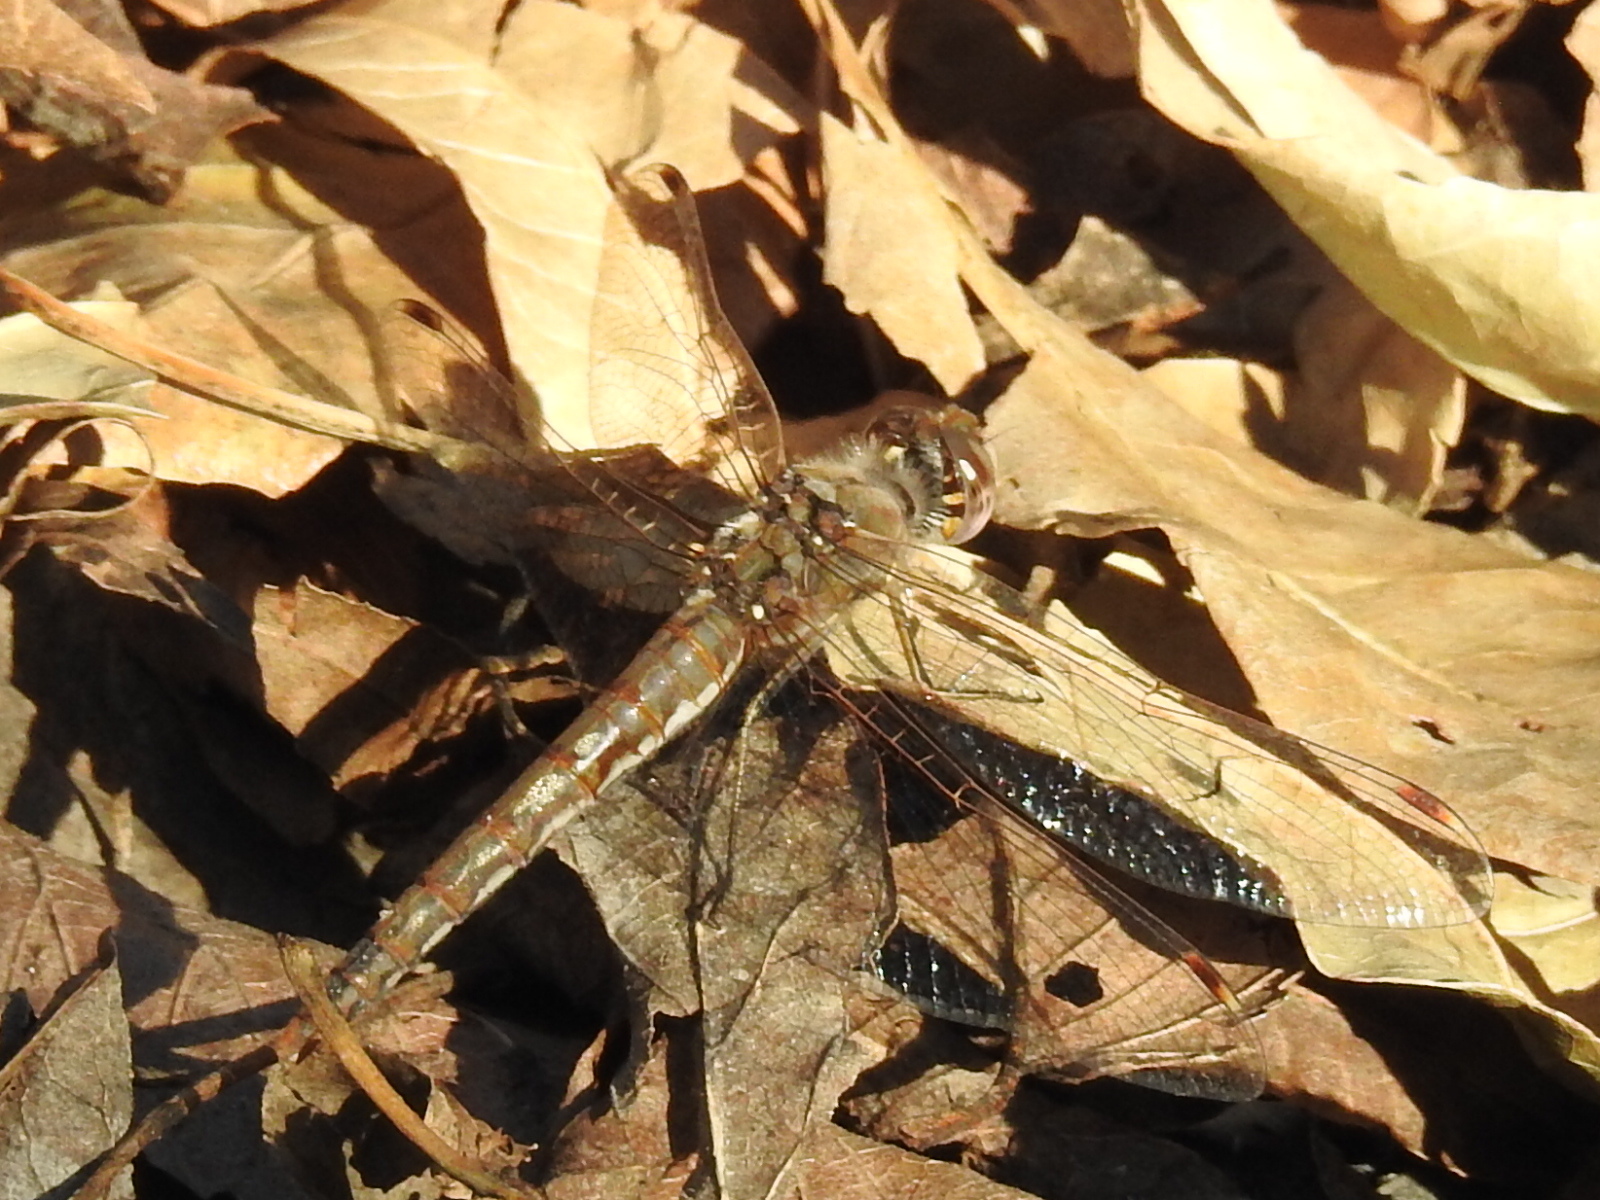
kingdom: Animalia
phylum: Arthropoda
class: Insecta
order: Odonata
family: Libellulidae
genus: Sympetrum
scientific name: Sympetrum corruptum
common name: Variegated meadowhawk
